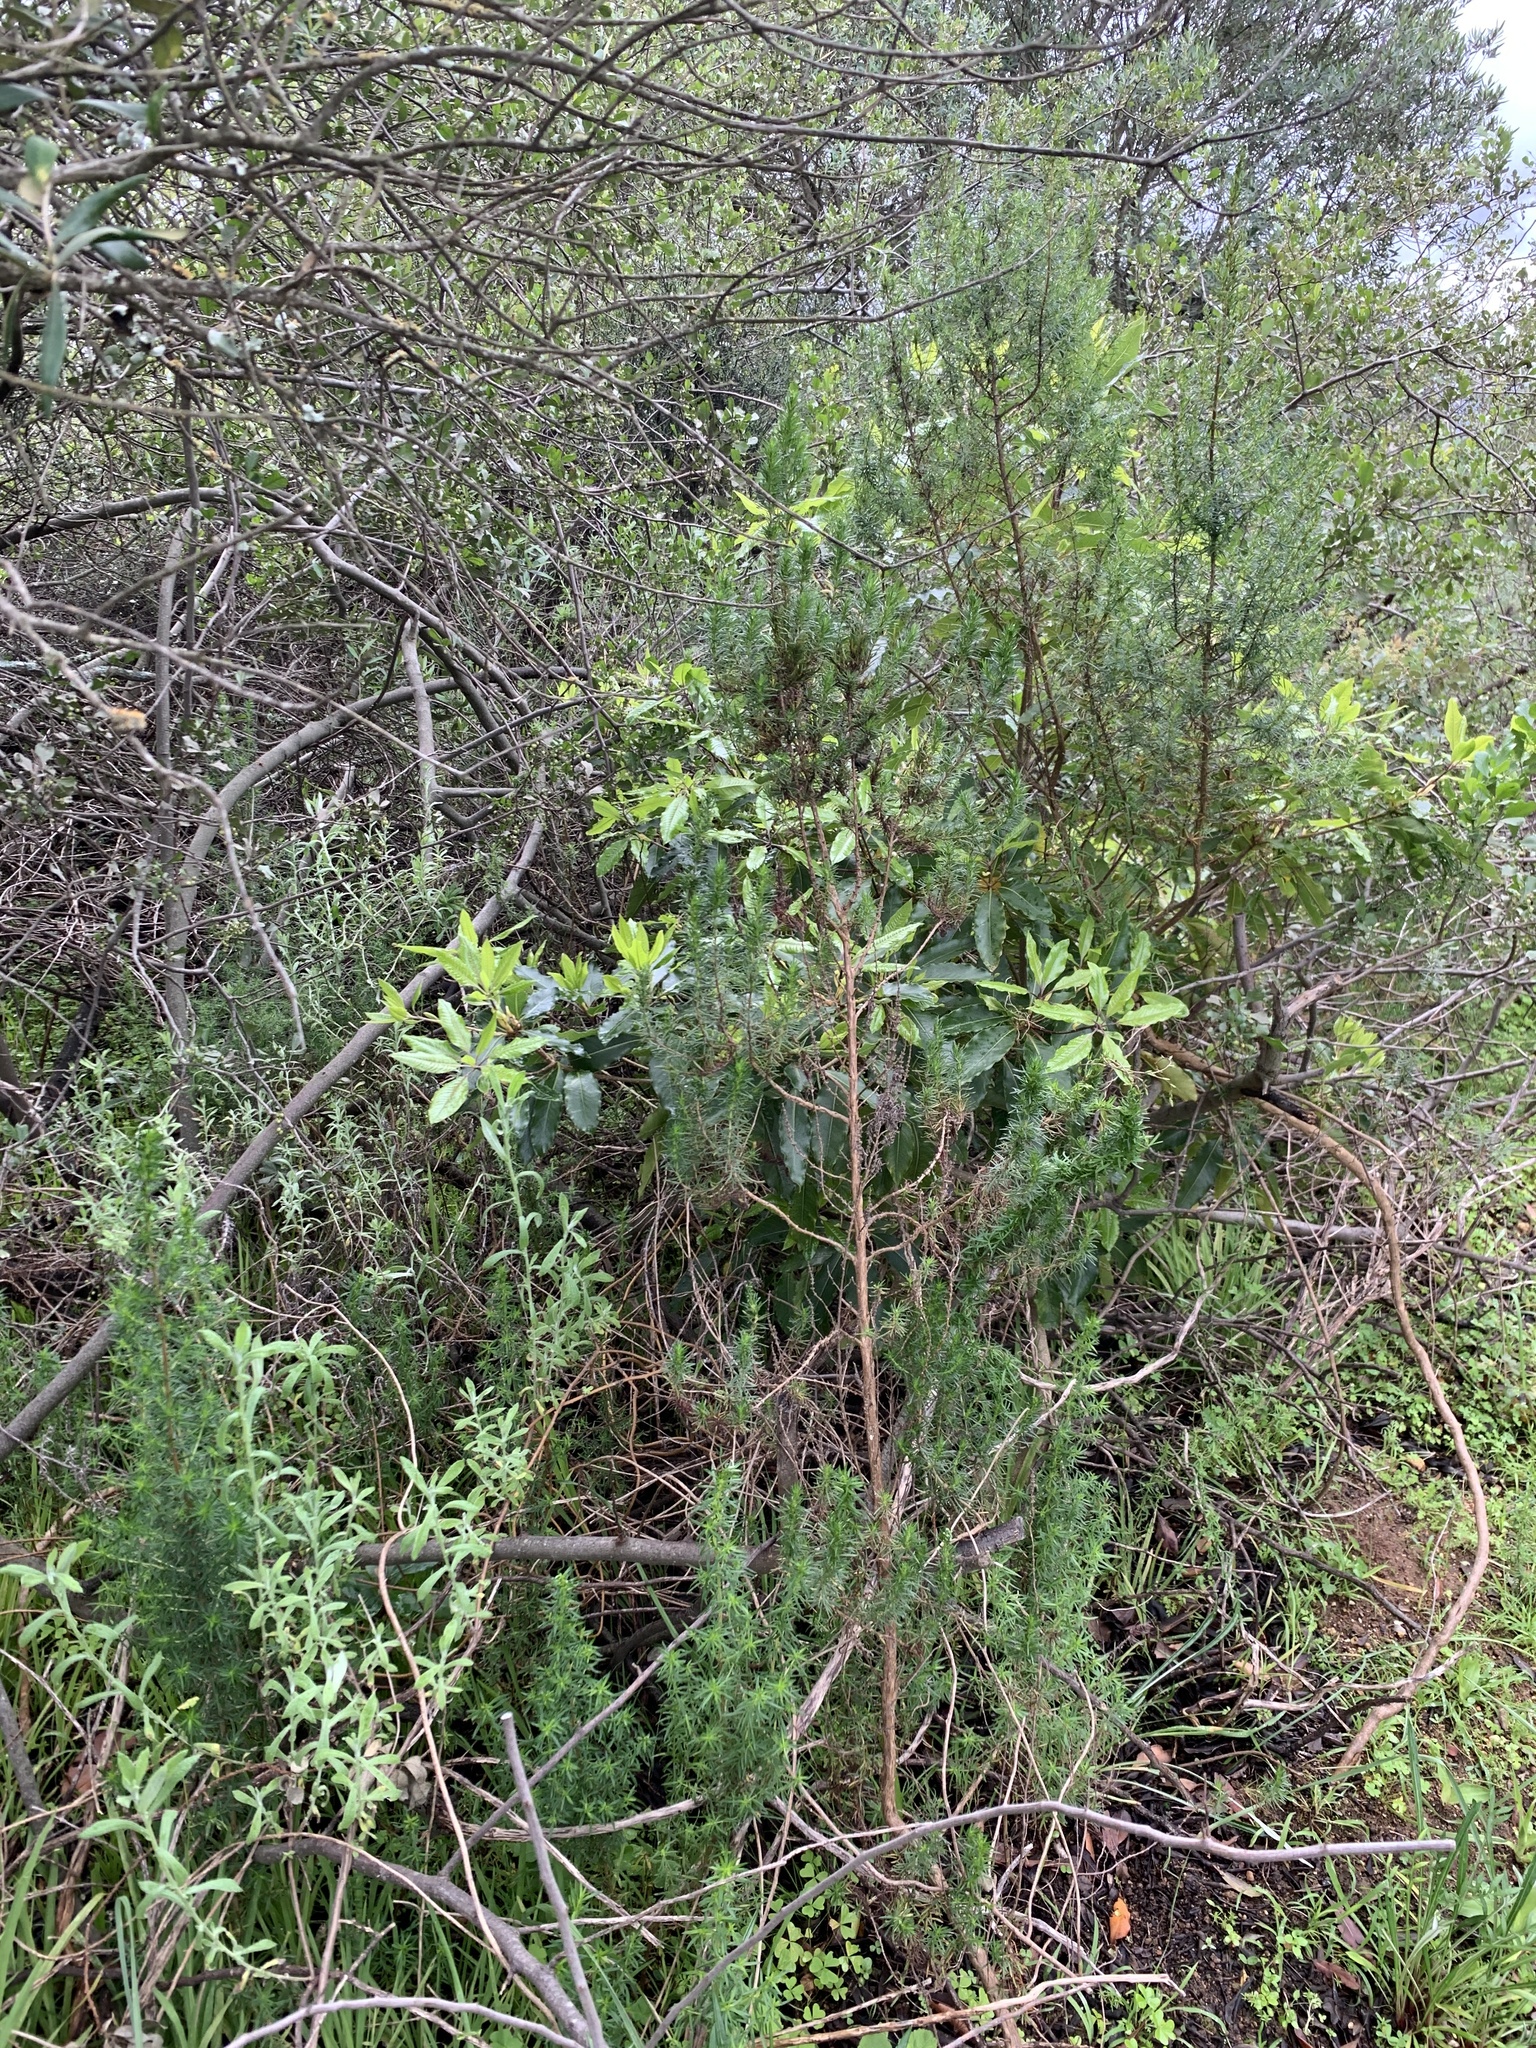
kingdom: Plantae
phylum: Tracheophyta
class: Magnoliopsida
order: Apiales
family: Pittosporaceae
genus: Pittosporum
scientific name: Pittosporum undulatum
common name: Australian cheesewood
